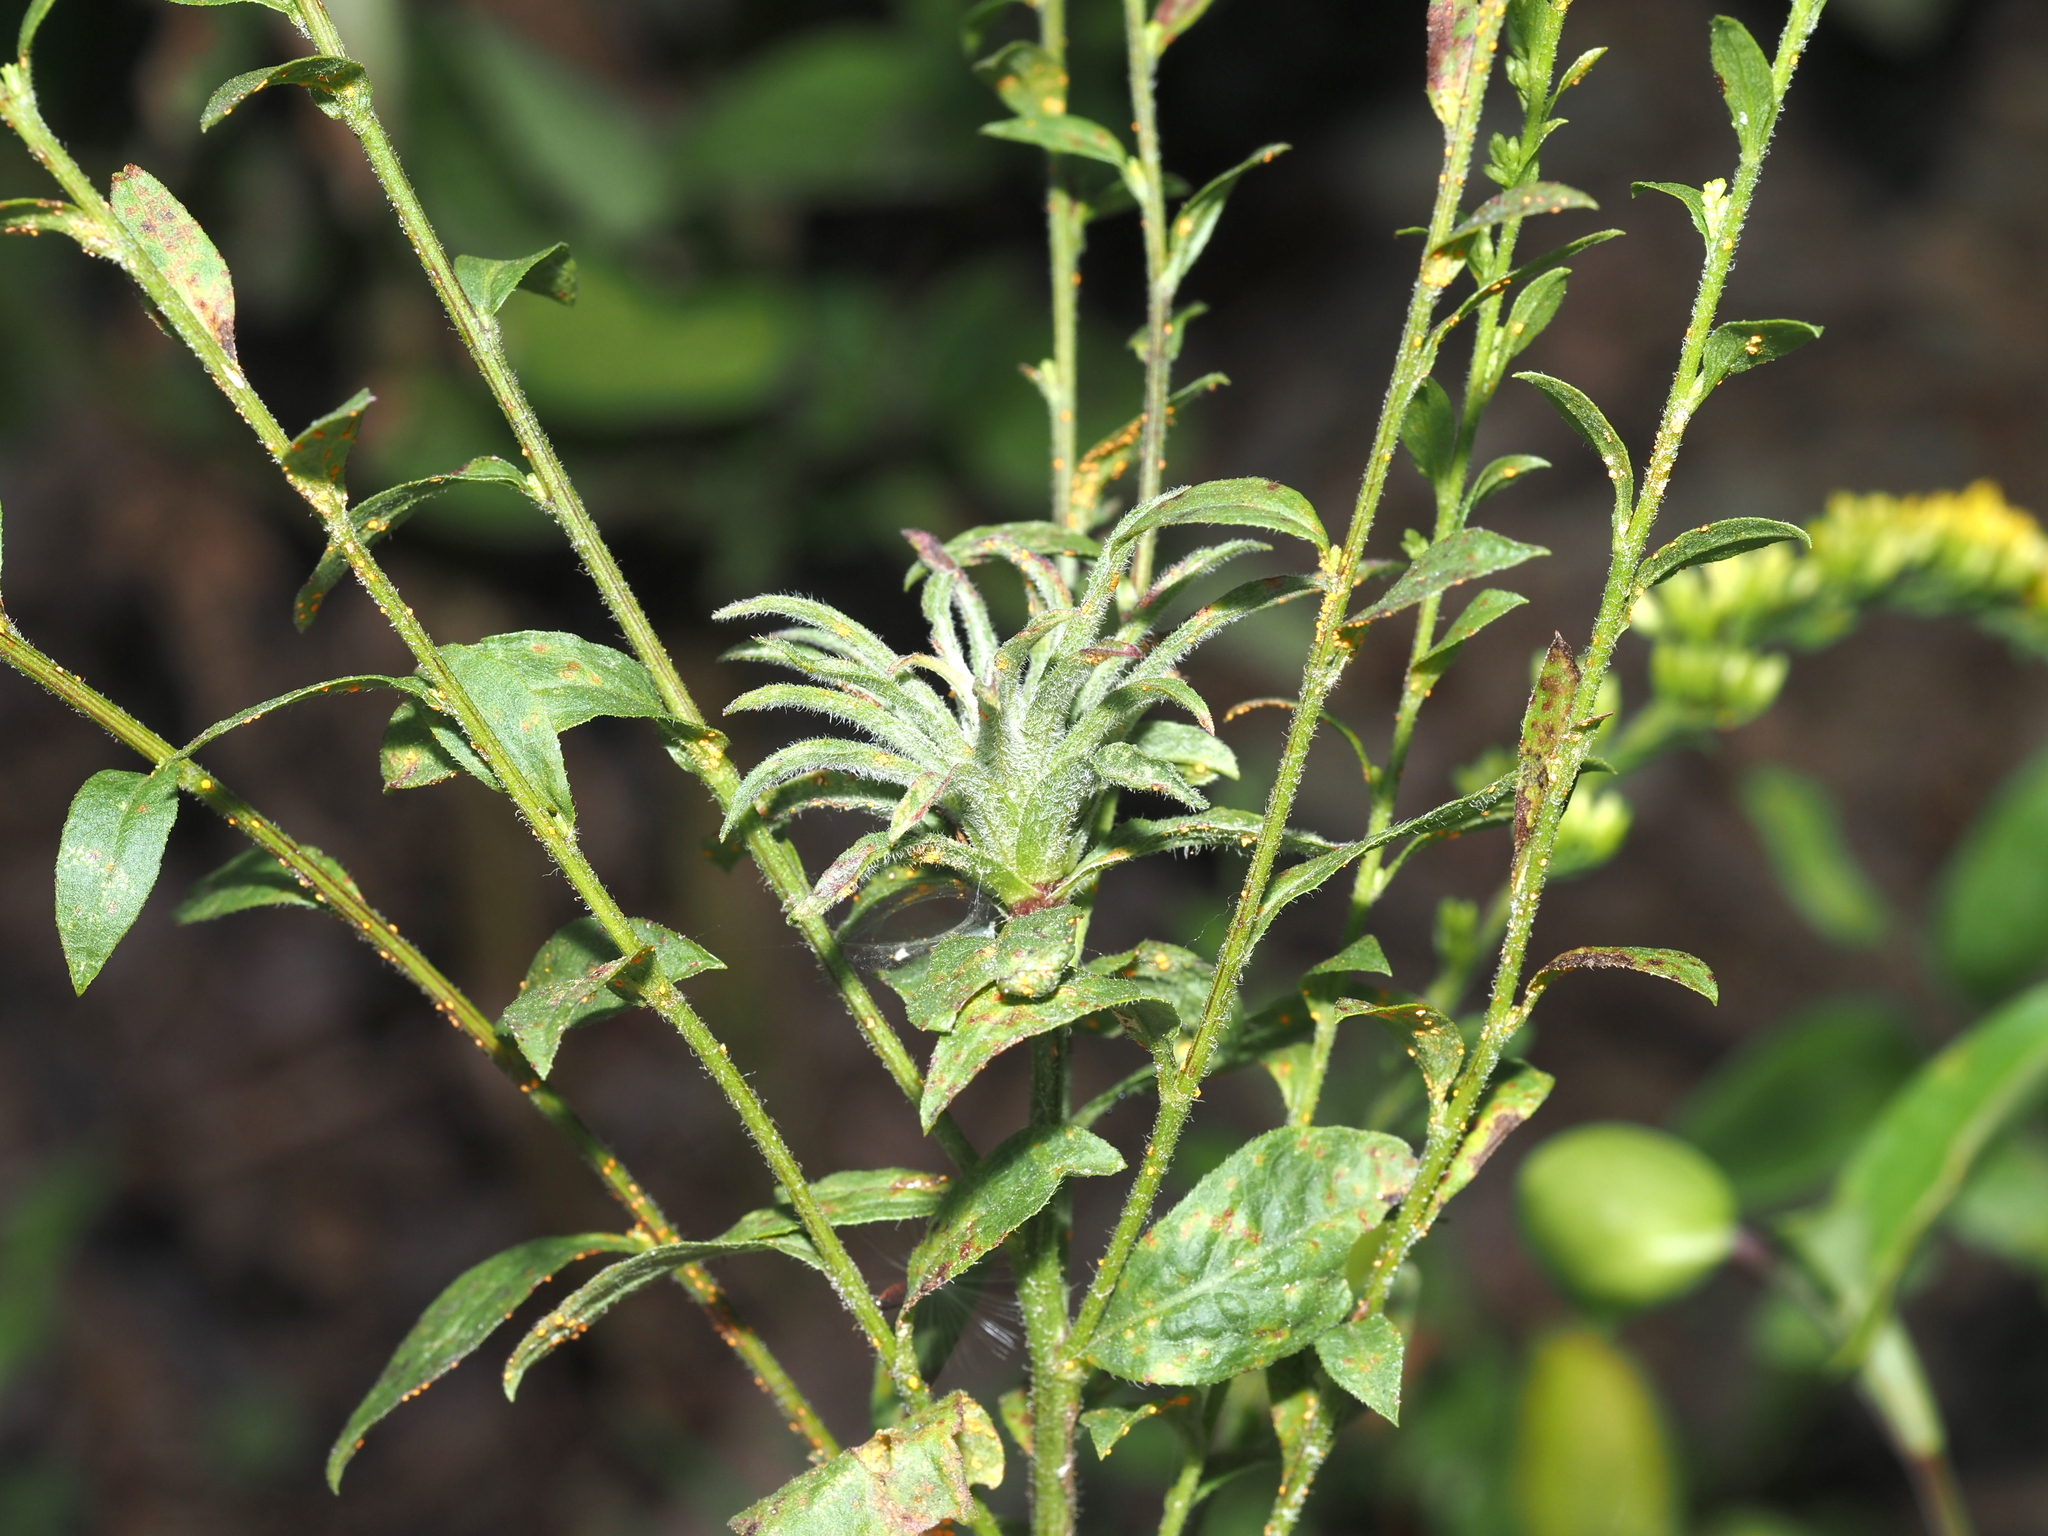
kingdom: Fungi
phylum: Basidiomycota
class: Pucciniomycetes
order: Pucciniales
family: Coleosporiaceae
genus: Coleosporium
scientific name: Coleosporium asterum
